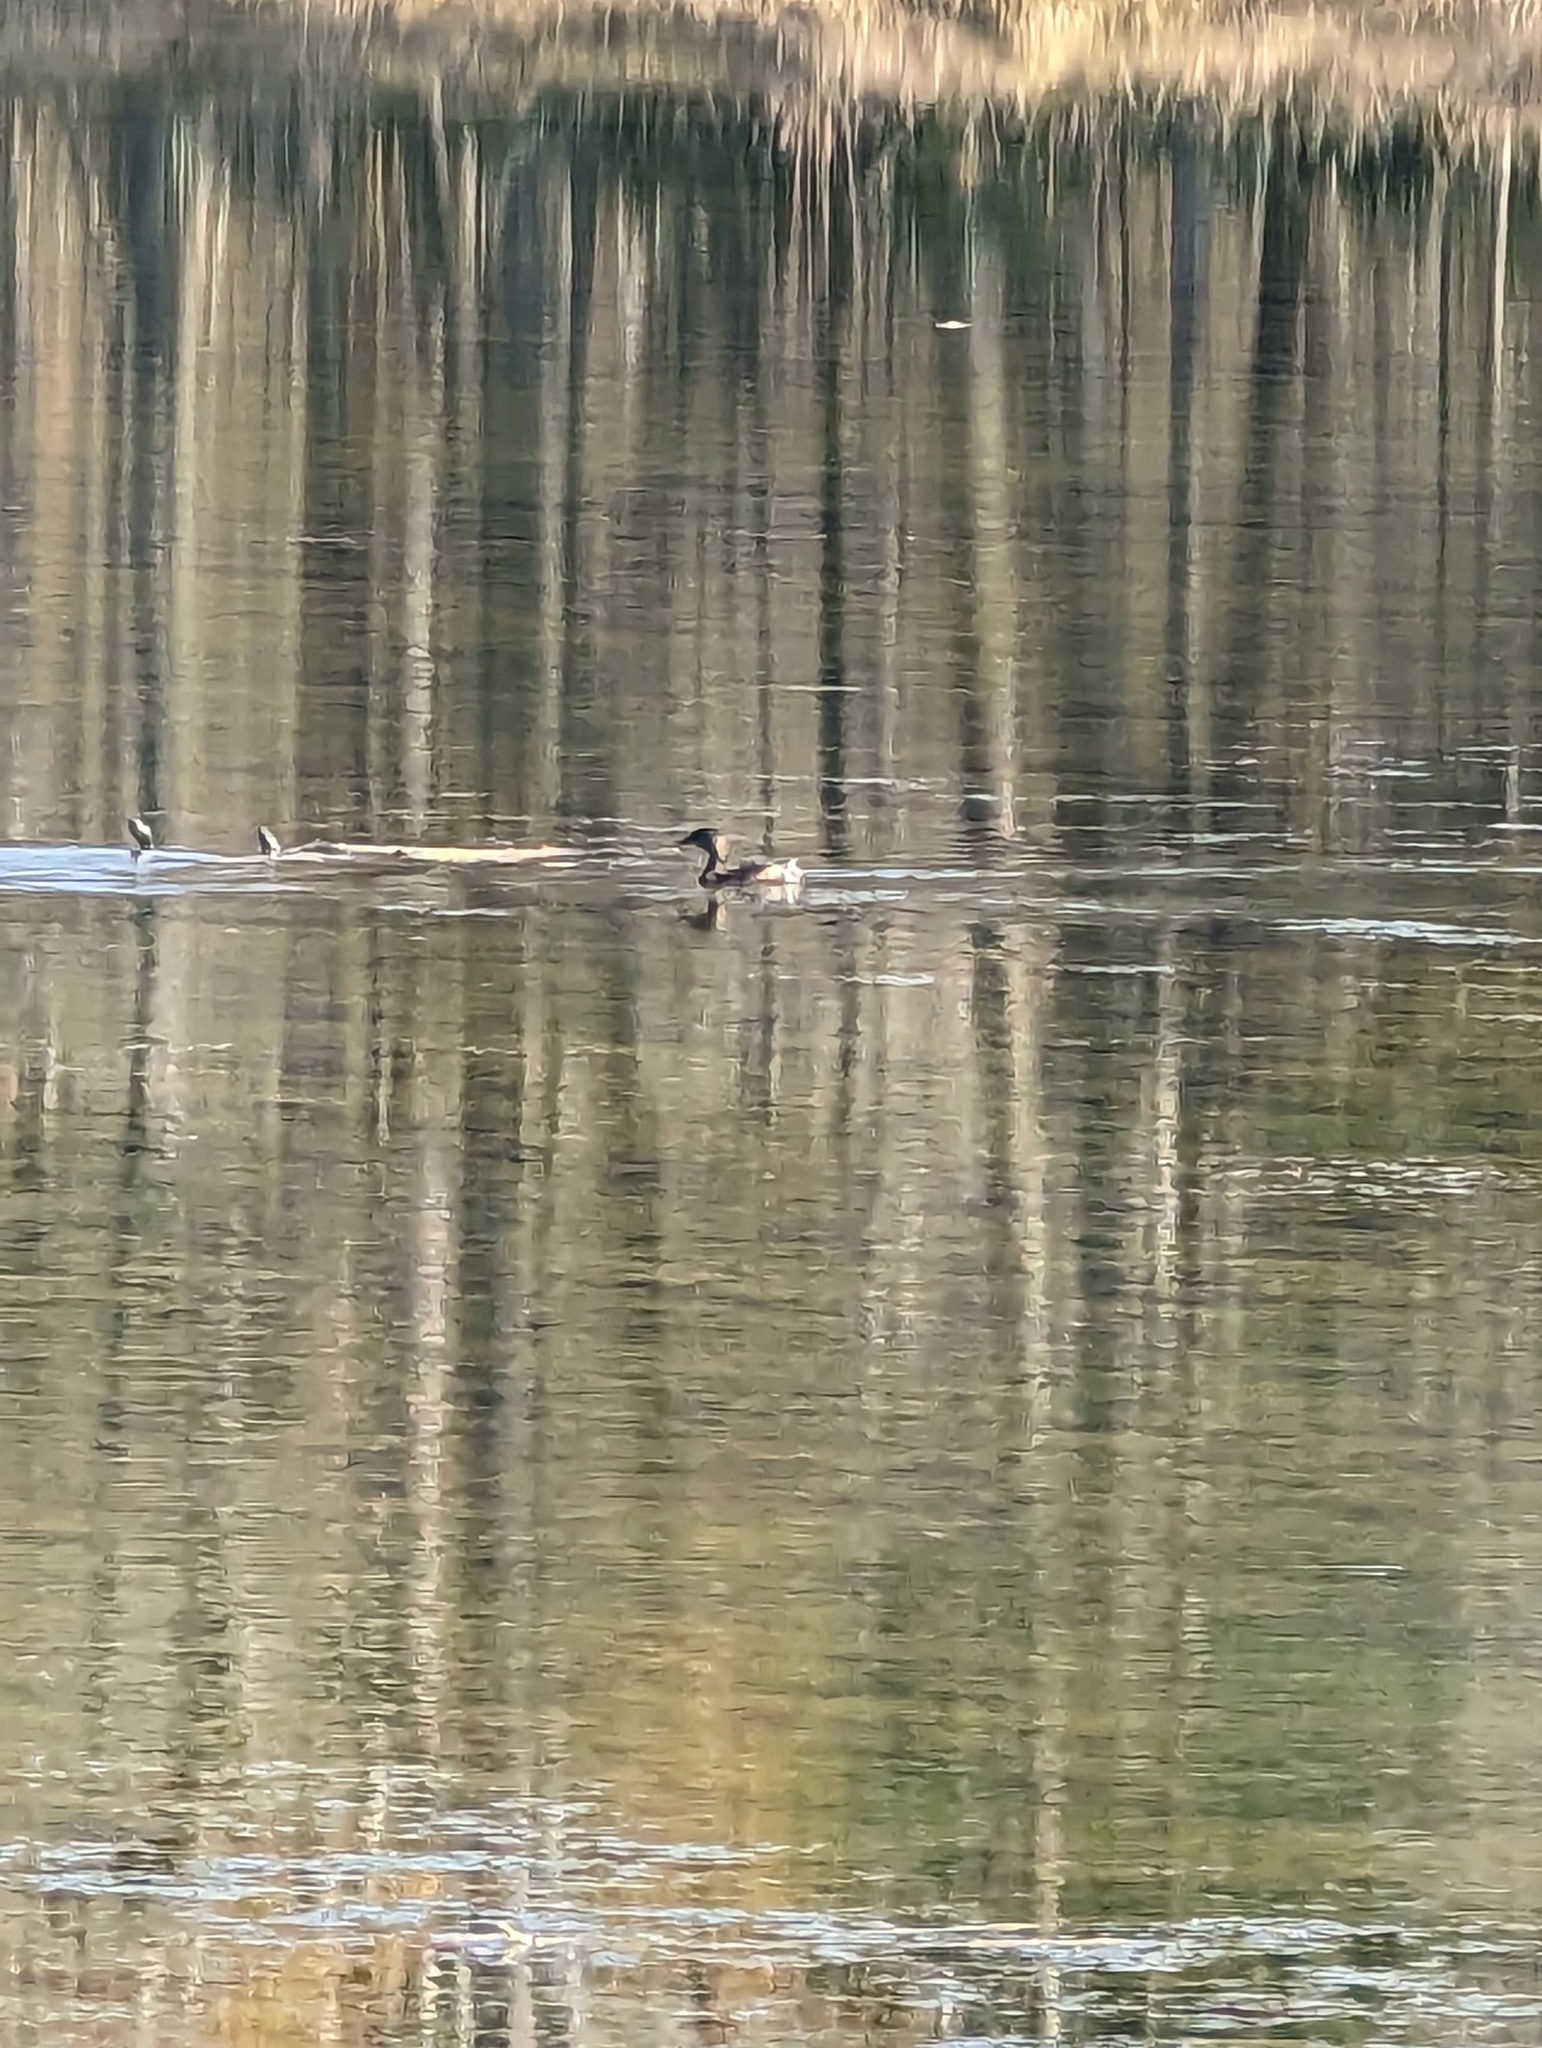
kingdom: Animalia
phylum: Chordata
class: Aves
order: Podicipediformes
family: Podicipedidae
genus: Podilymbus
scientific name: Podilymbus podiceps
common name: Pied-billed grebe
